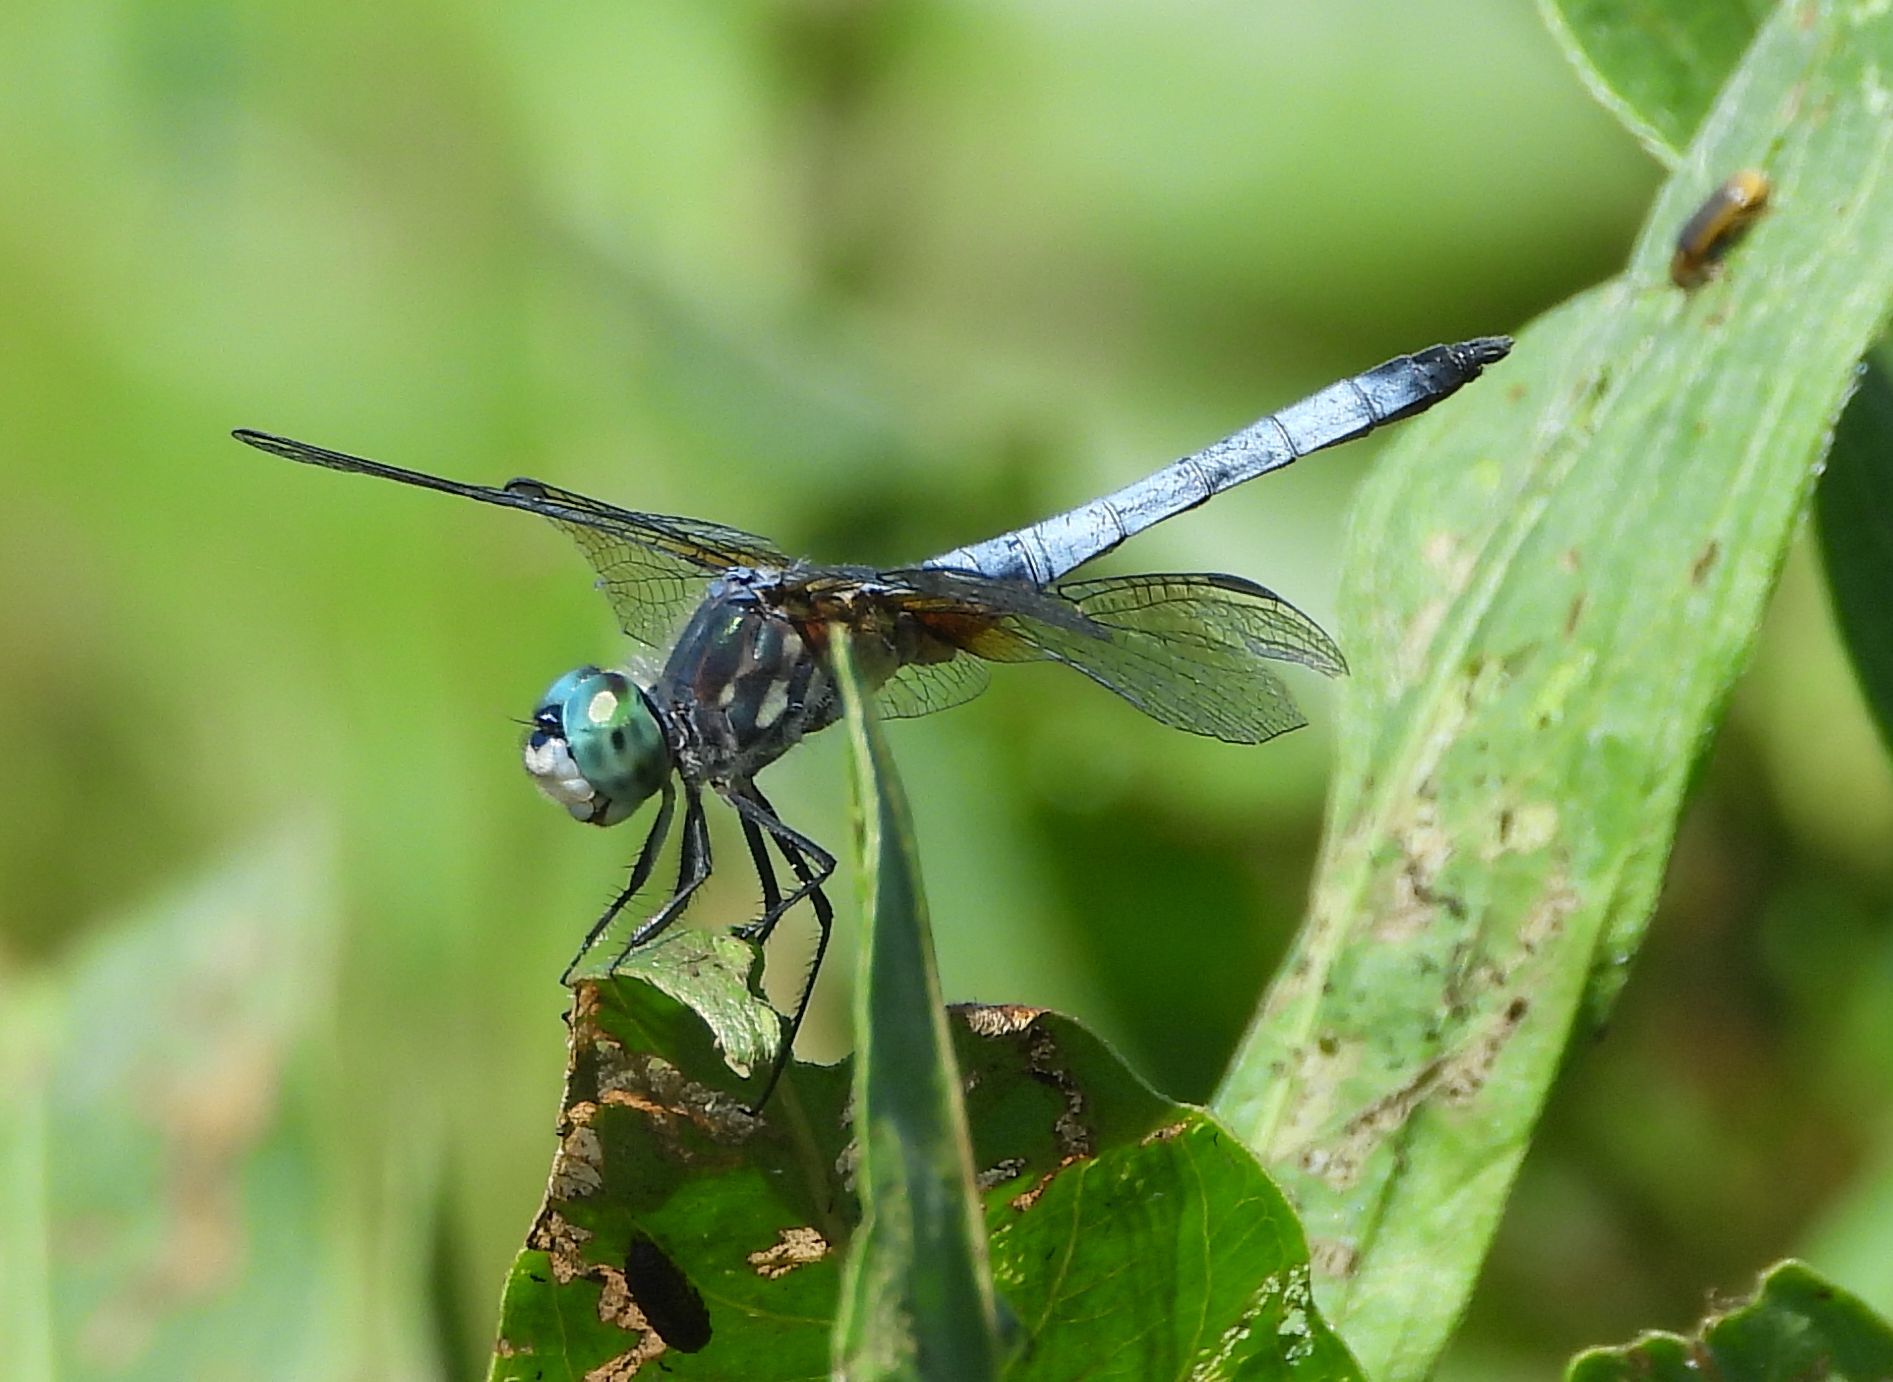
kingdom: Animalia
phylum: Arthropoda
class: Insecta
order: Odonata
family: Libellulidae
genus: Pachydiplax
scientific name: Pachydiplax longipennis
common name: Blue dasher
